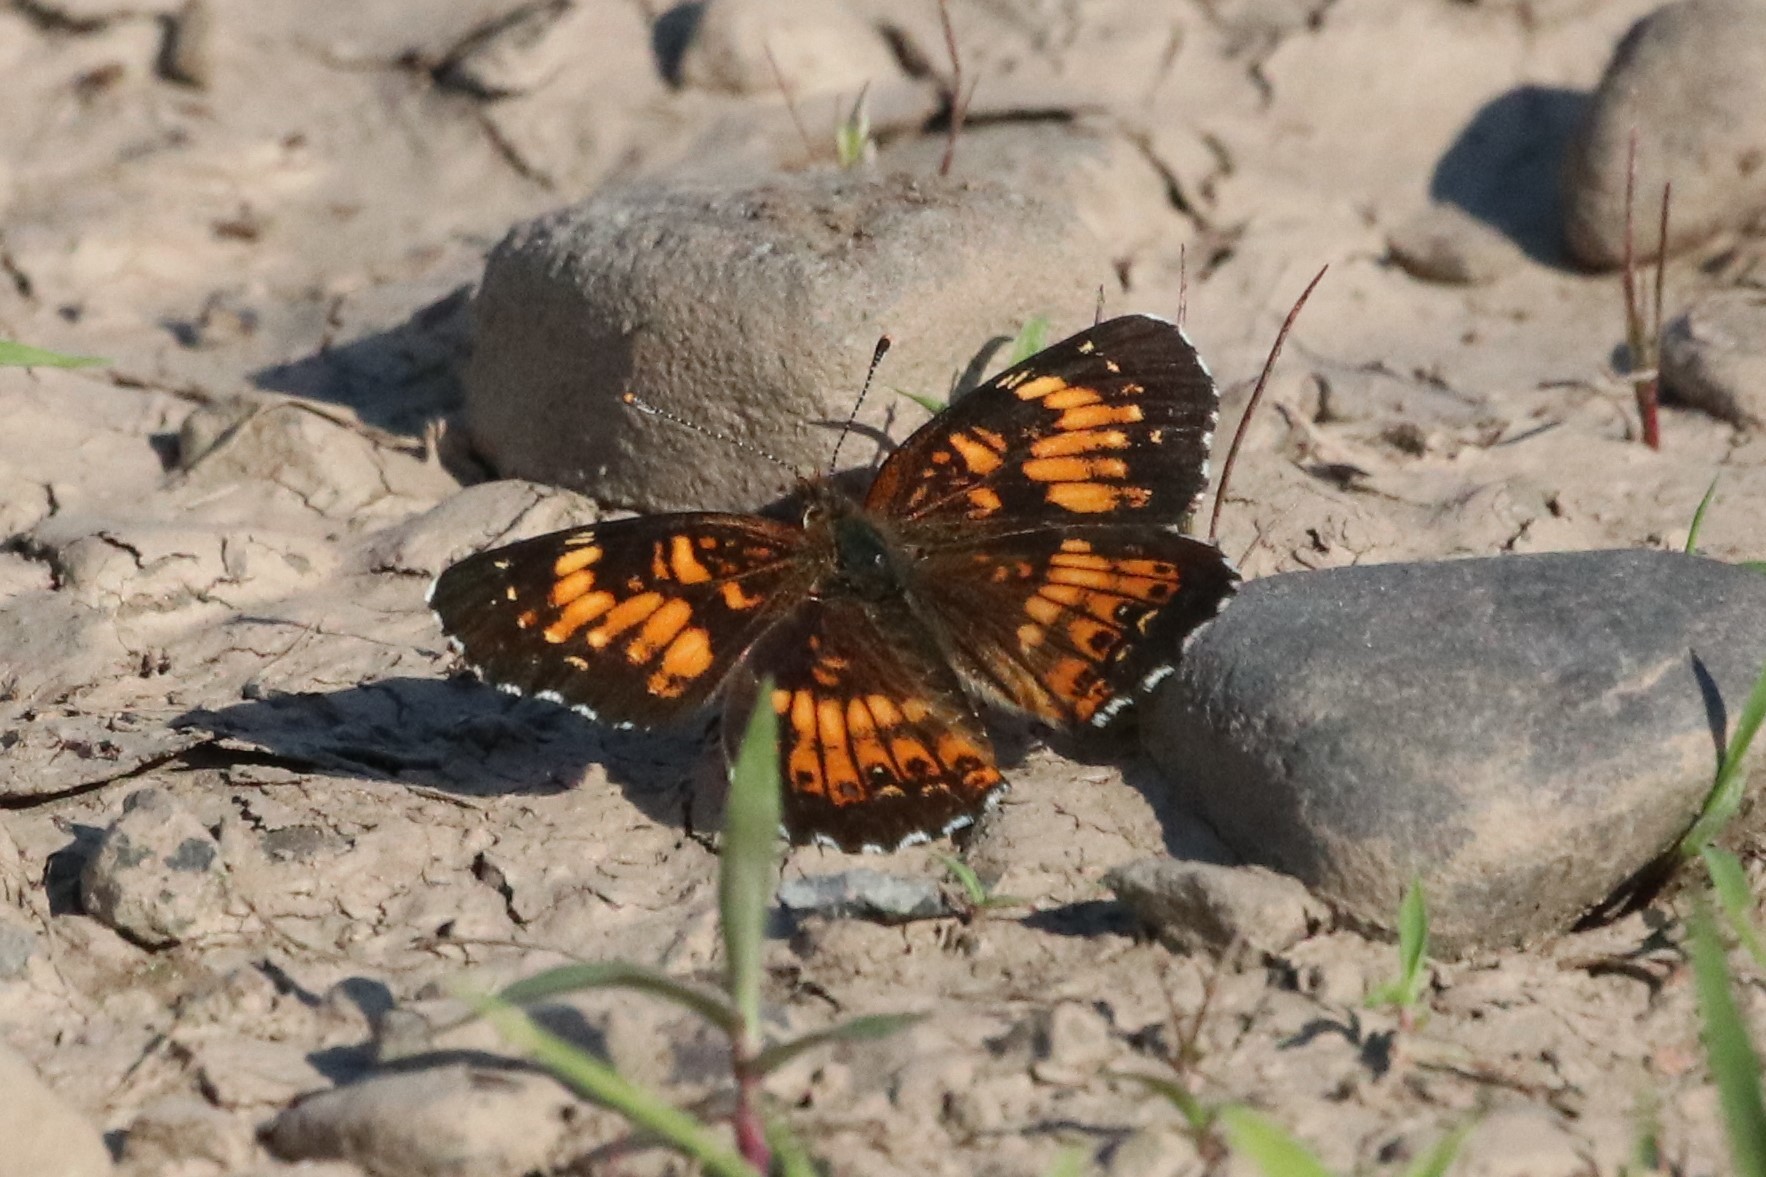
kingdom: Animalia
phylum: Arthropoda
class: Insecta
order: Lepidoptera
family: Nymphalidae
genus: Chlosyne
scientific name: Chlosyne harrisii
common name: Harris's checkerspot
